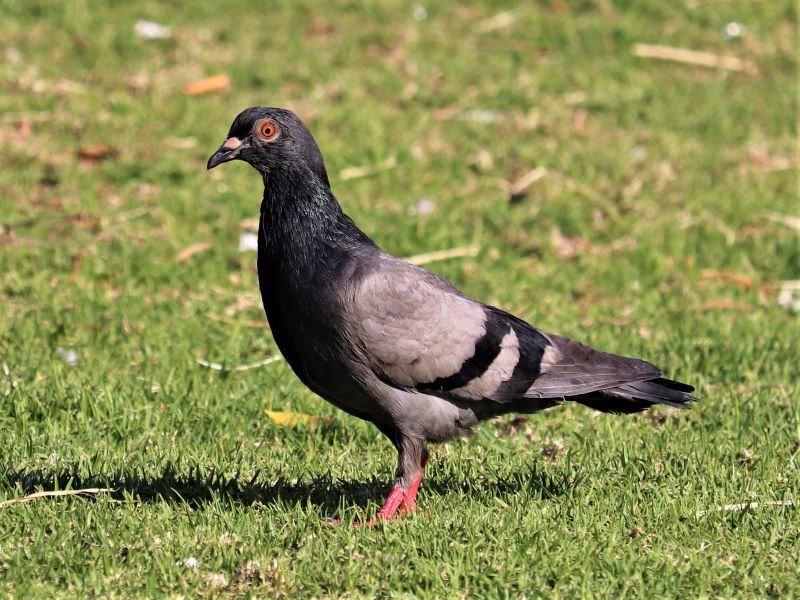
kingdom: Animalia
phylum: Chordata
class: Aves
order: Columbiformes
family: Columbidae
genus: Columba
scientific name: Columba livia
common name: Rock pigeon
